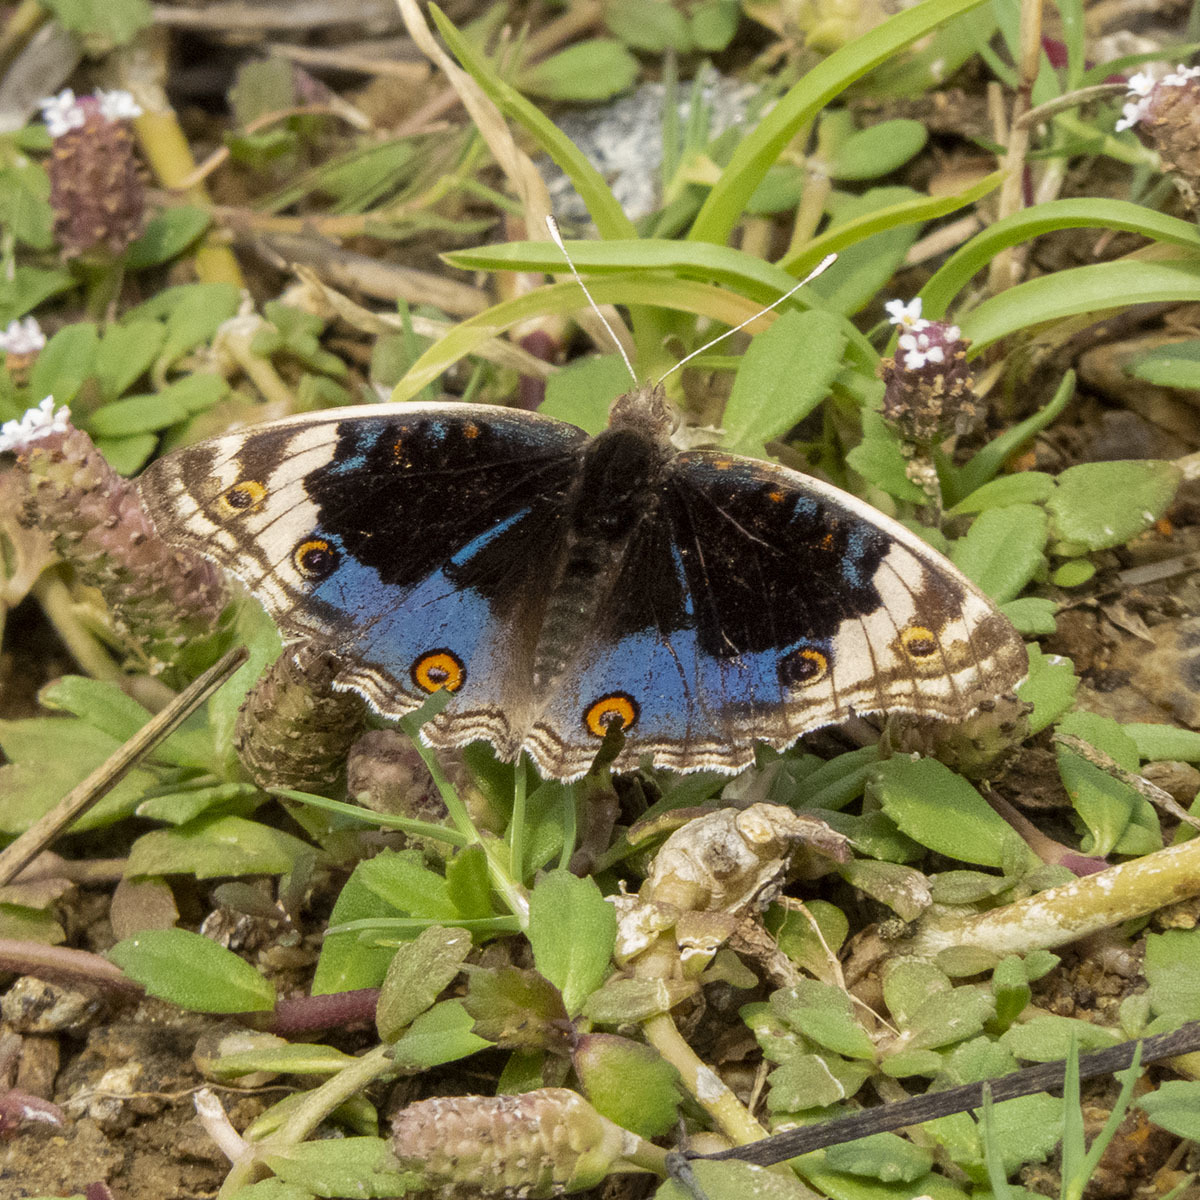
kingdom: Animalia
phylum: Arthropoda
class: Insecta
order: Lepidoptera
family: Nymphalidae
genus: Junonia
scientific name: Junonia orithya
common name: Blue pansy
